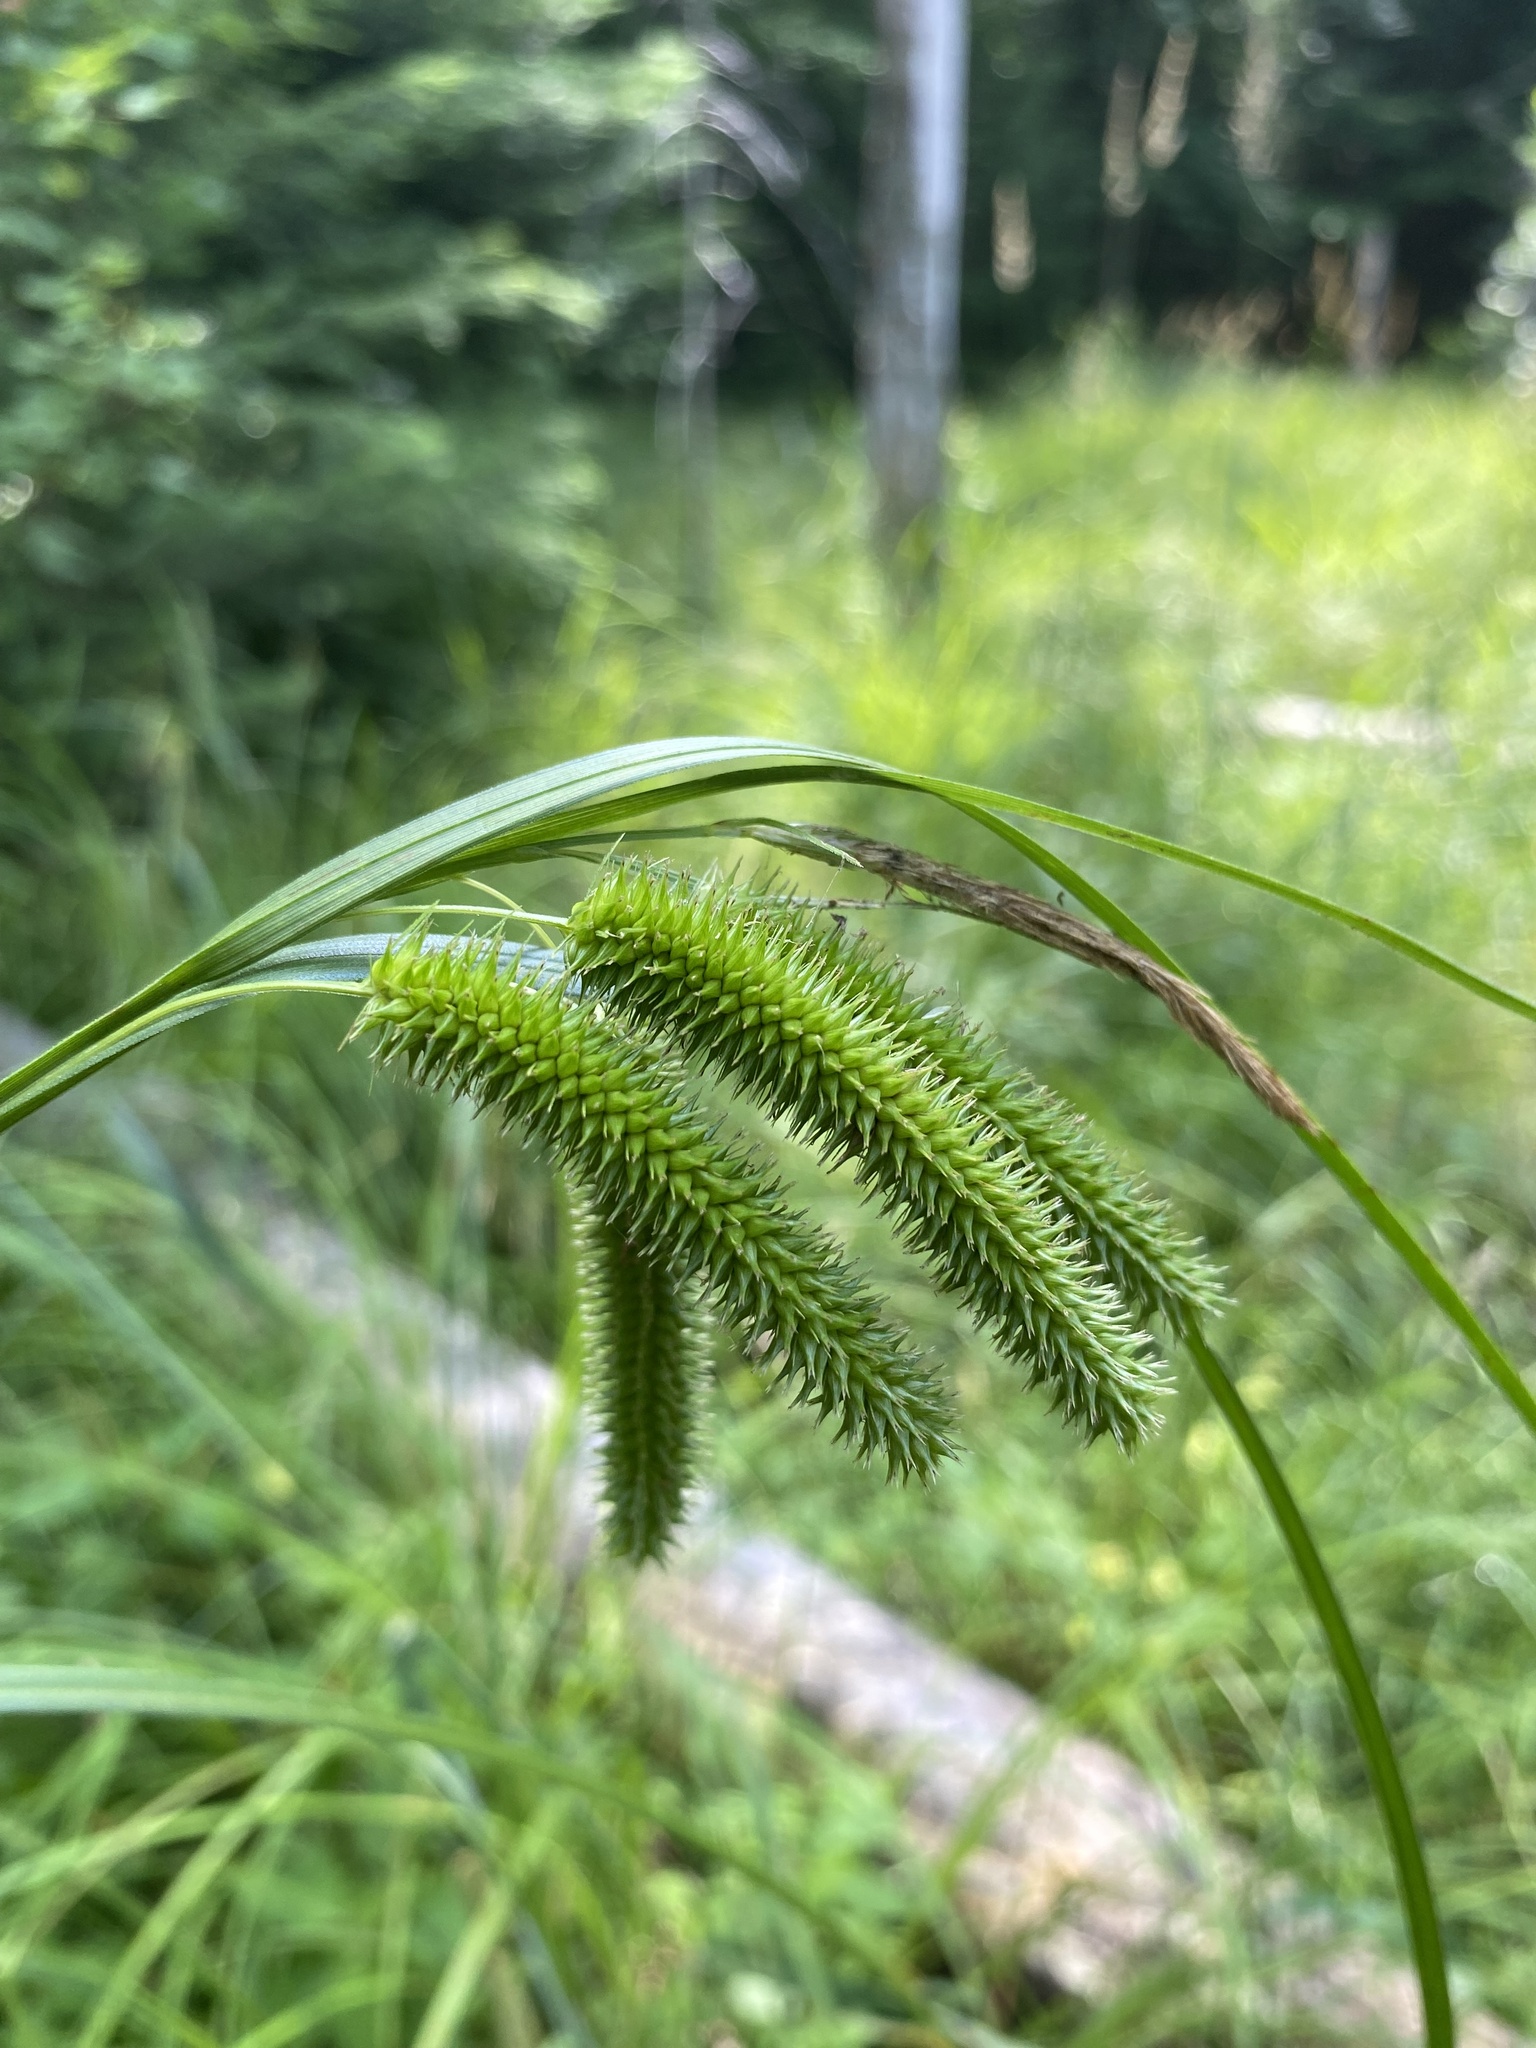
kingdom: Plantae
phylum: Tracheophyta
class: Liliopsida
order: Poales
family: Cyperaceae
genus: Carex
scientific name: Carex pseudocyperus
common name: Cyperus sedge
